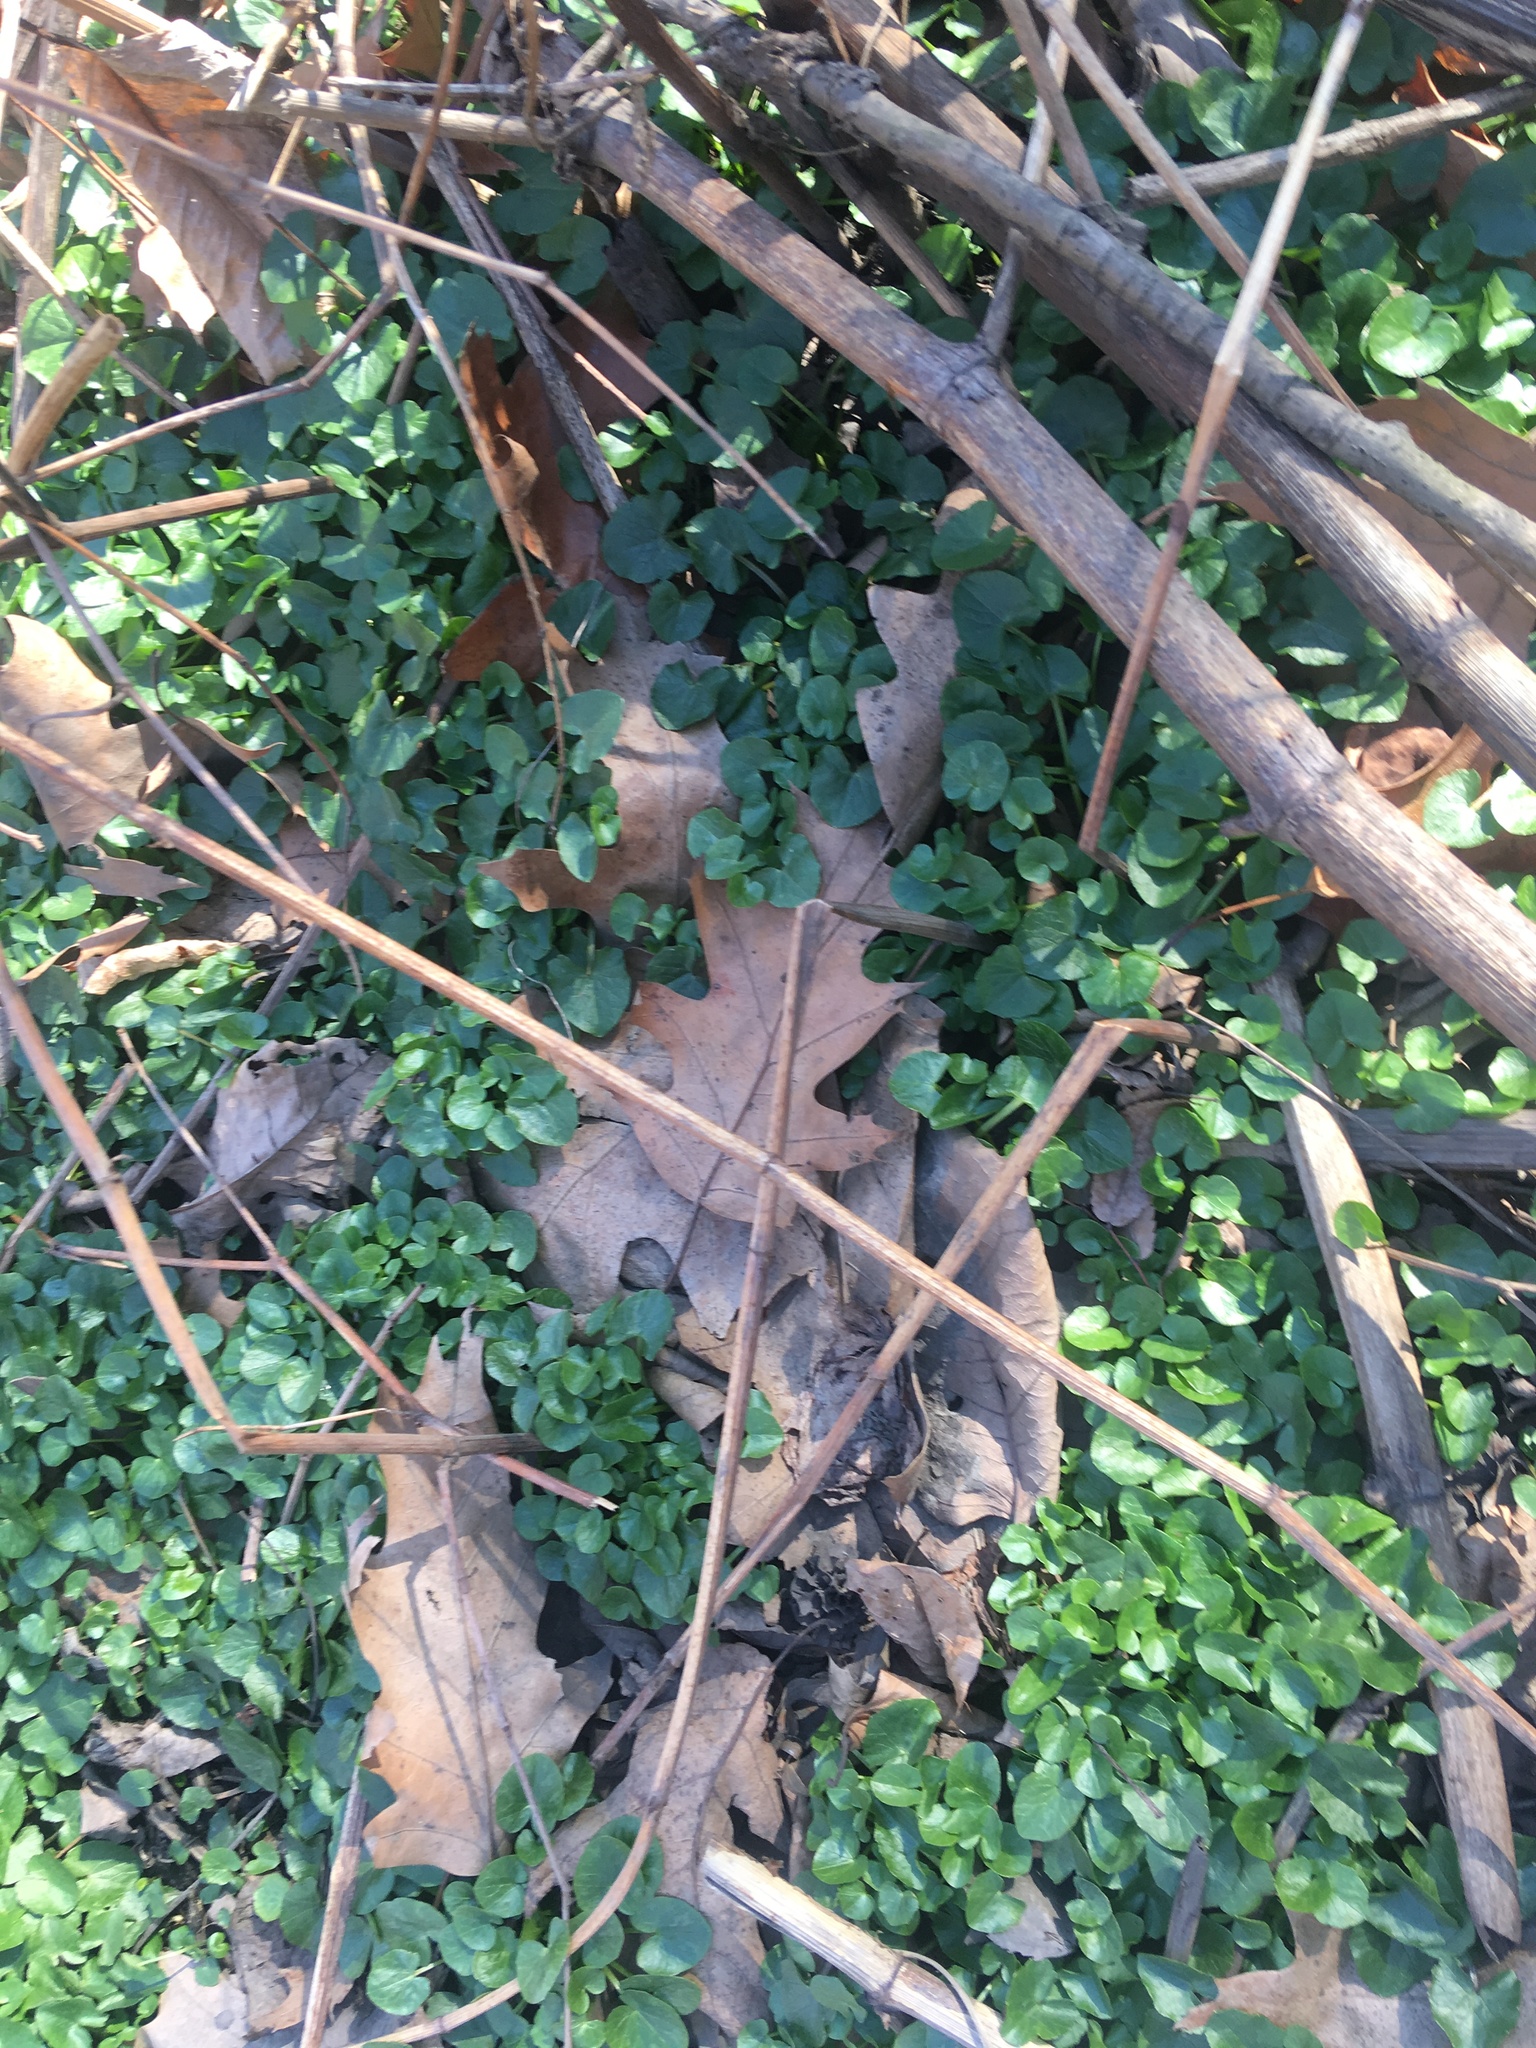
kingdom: Plantae
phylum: Tracheophyta
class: Magnoliopsida
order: Ranunculales
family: Ranunculaceae
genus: Ficaria
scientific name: Ficaria verna
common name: Lesser celandine
